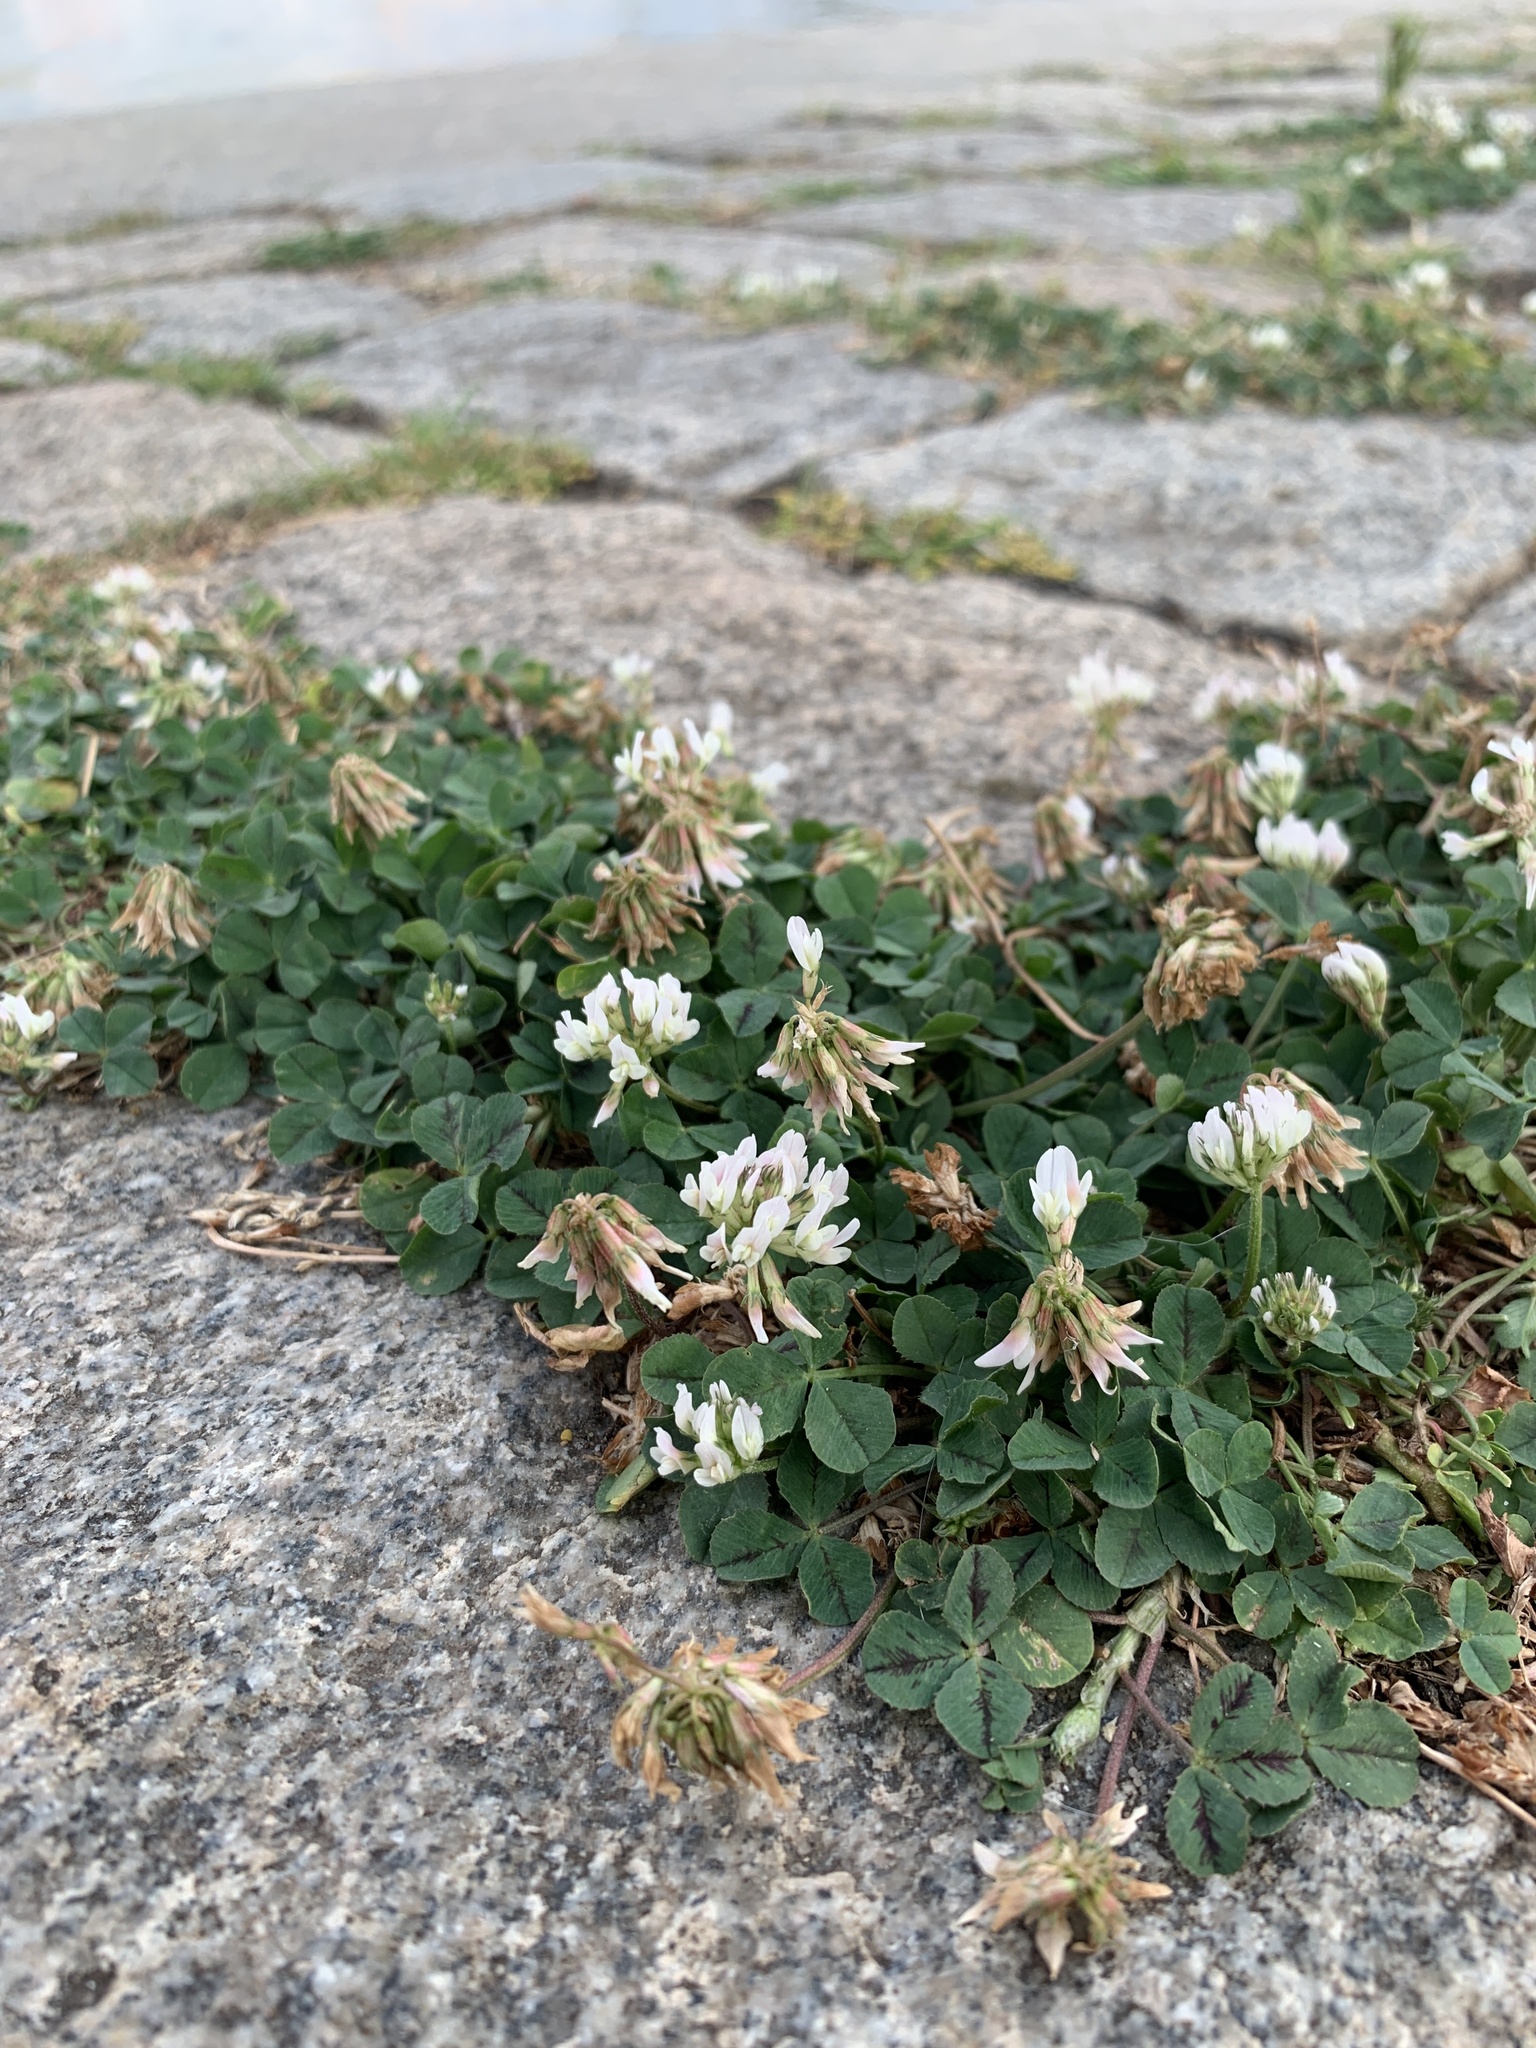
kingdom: Plantae
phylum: Tracheophyta
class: Magnoliopsida
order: Fabales
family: Fabaceae
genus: Trifolium
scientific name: Trifolium repens
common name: White clover
